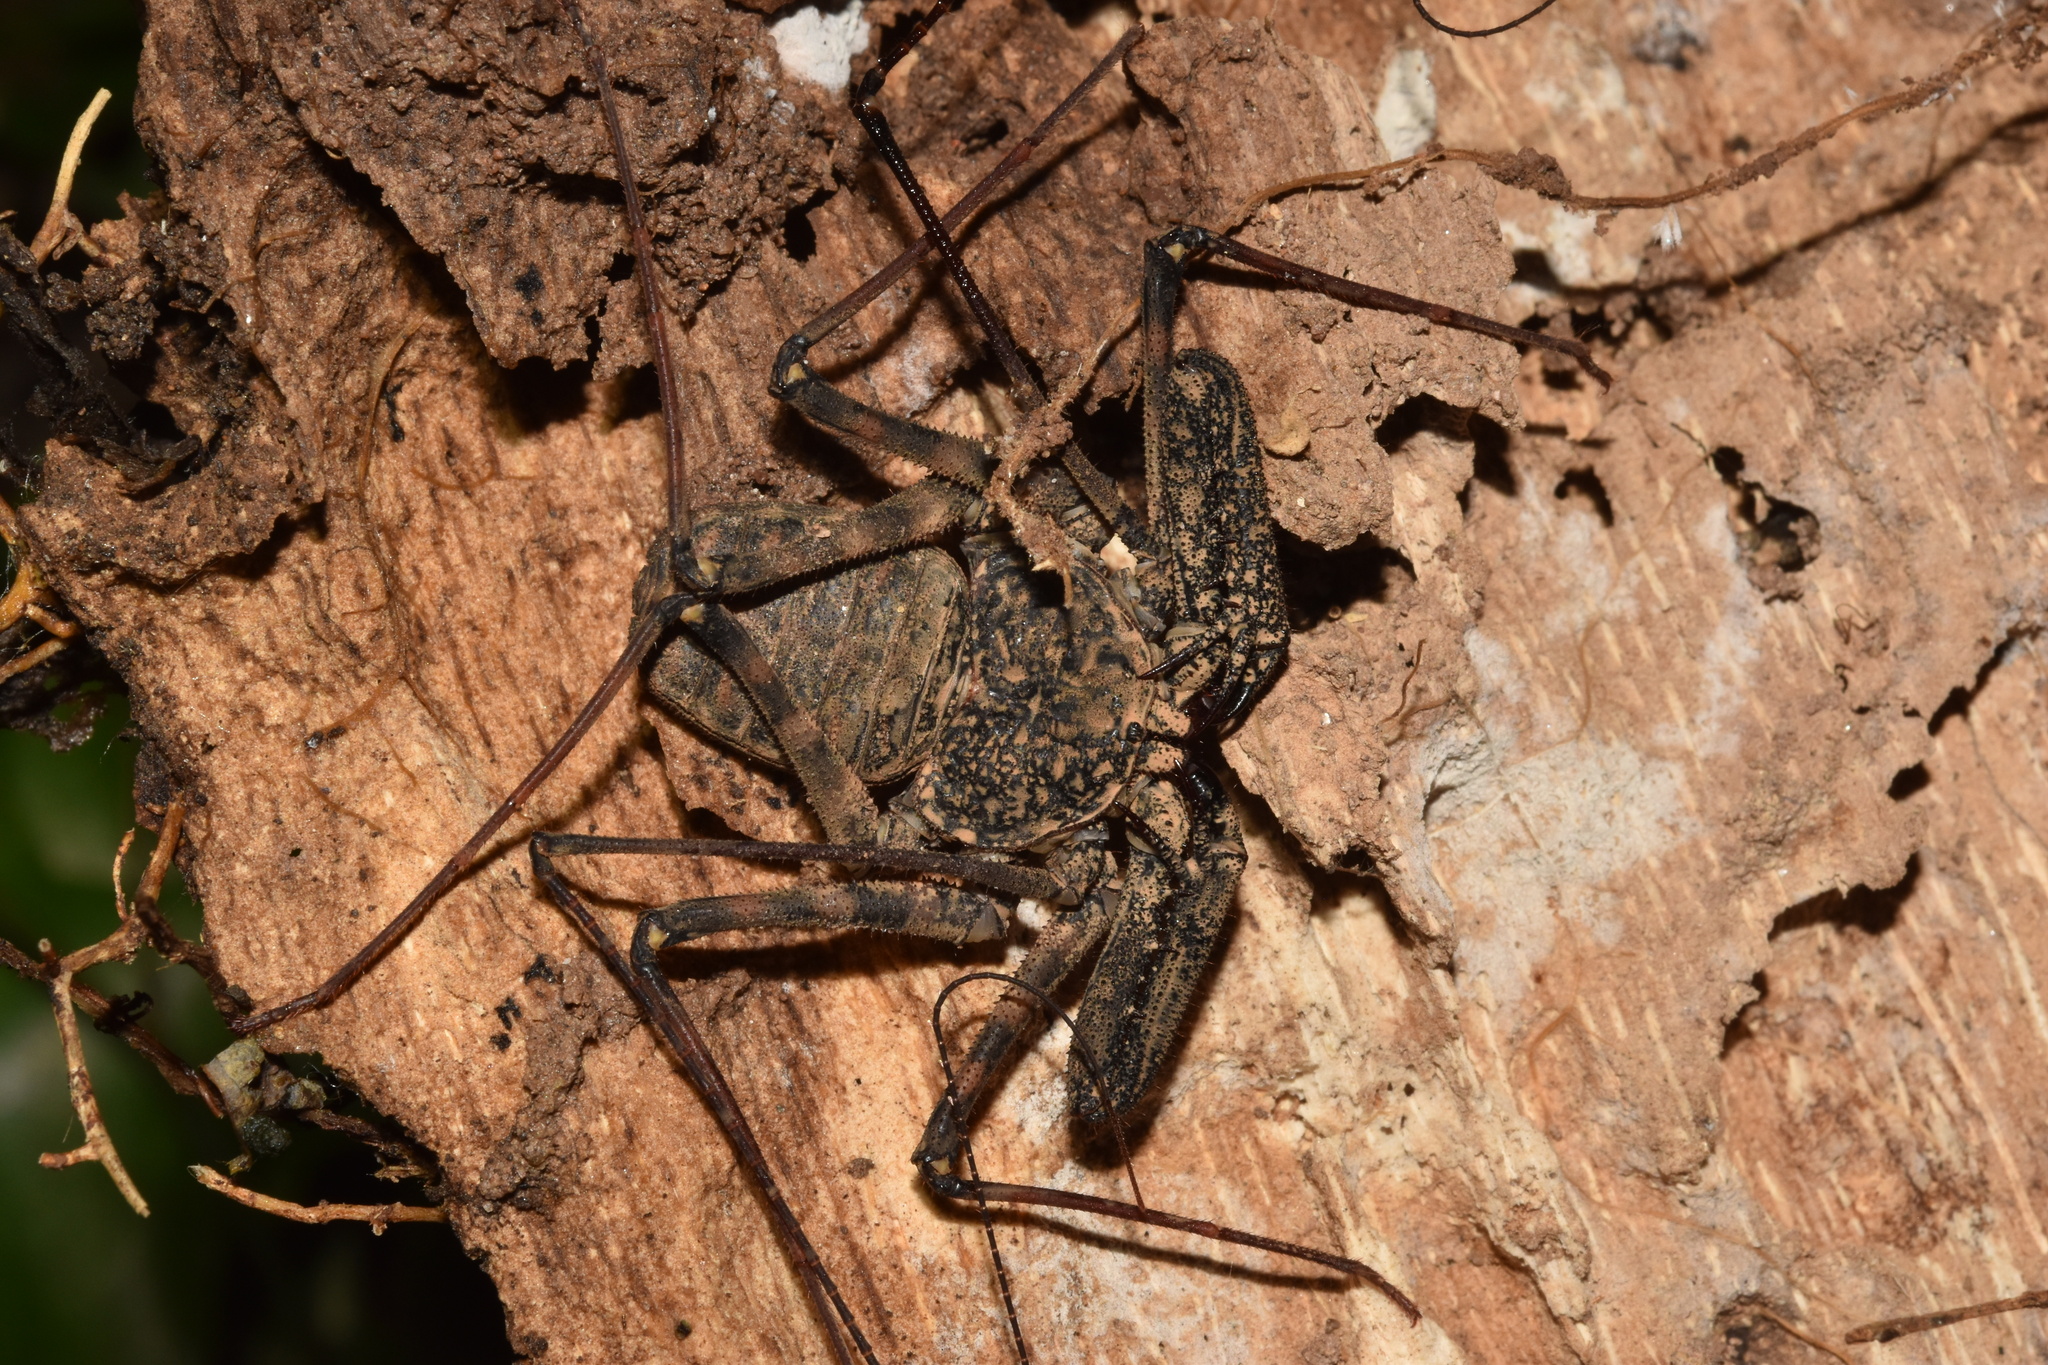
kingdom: Animalia
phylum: Arthropoda
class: Arachnida
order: Amblypygi
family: Phrynichidae
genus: Damon
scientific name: Damon annulatipes
